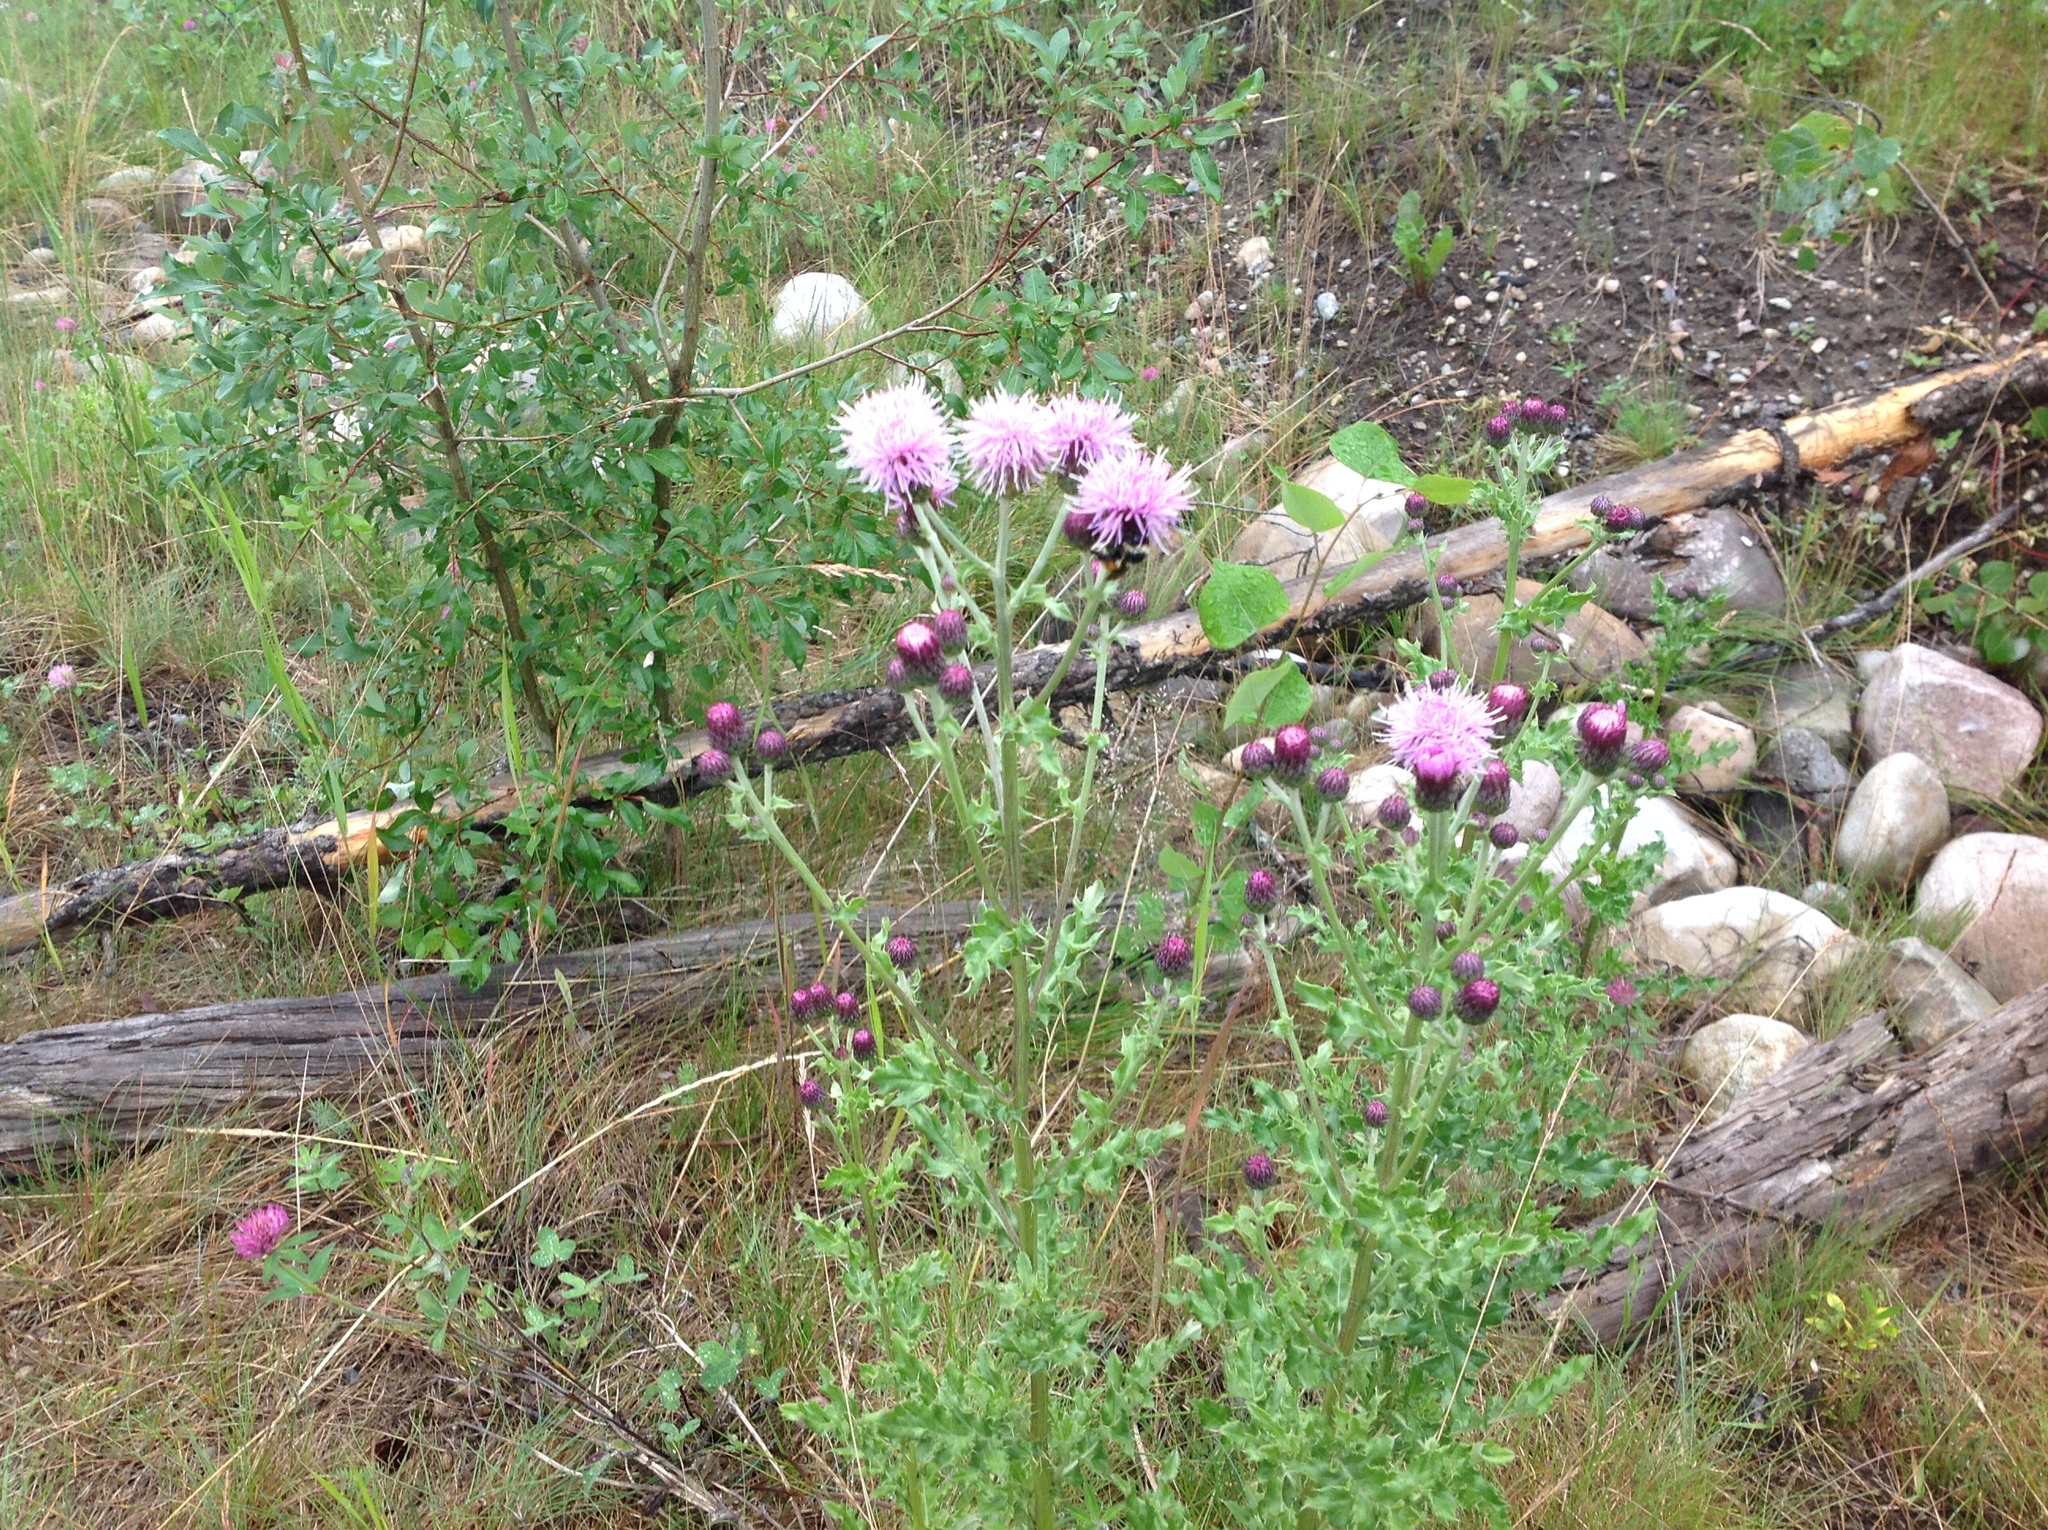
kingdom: Plantae
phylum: Tracheophyta
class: Magnoliopsida
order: Asterales
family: Asteraceae
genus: Cirsium
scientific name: Cirsium arvense
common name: Creeping thistle
